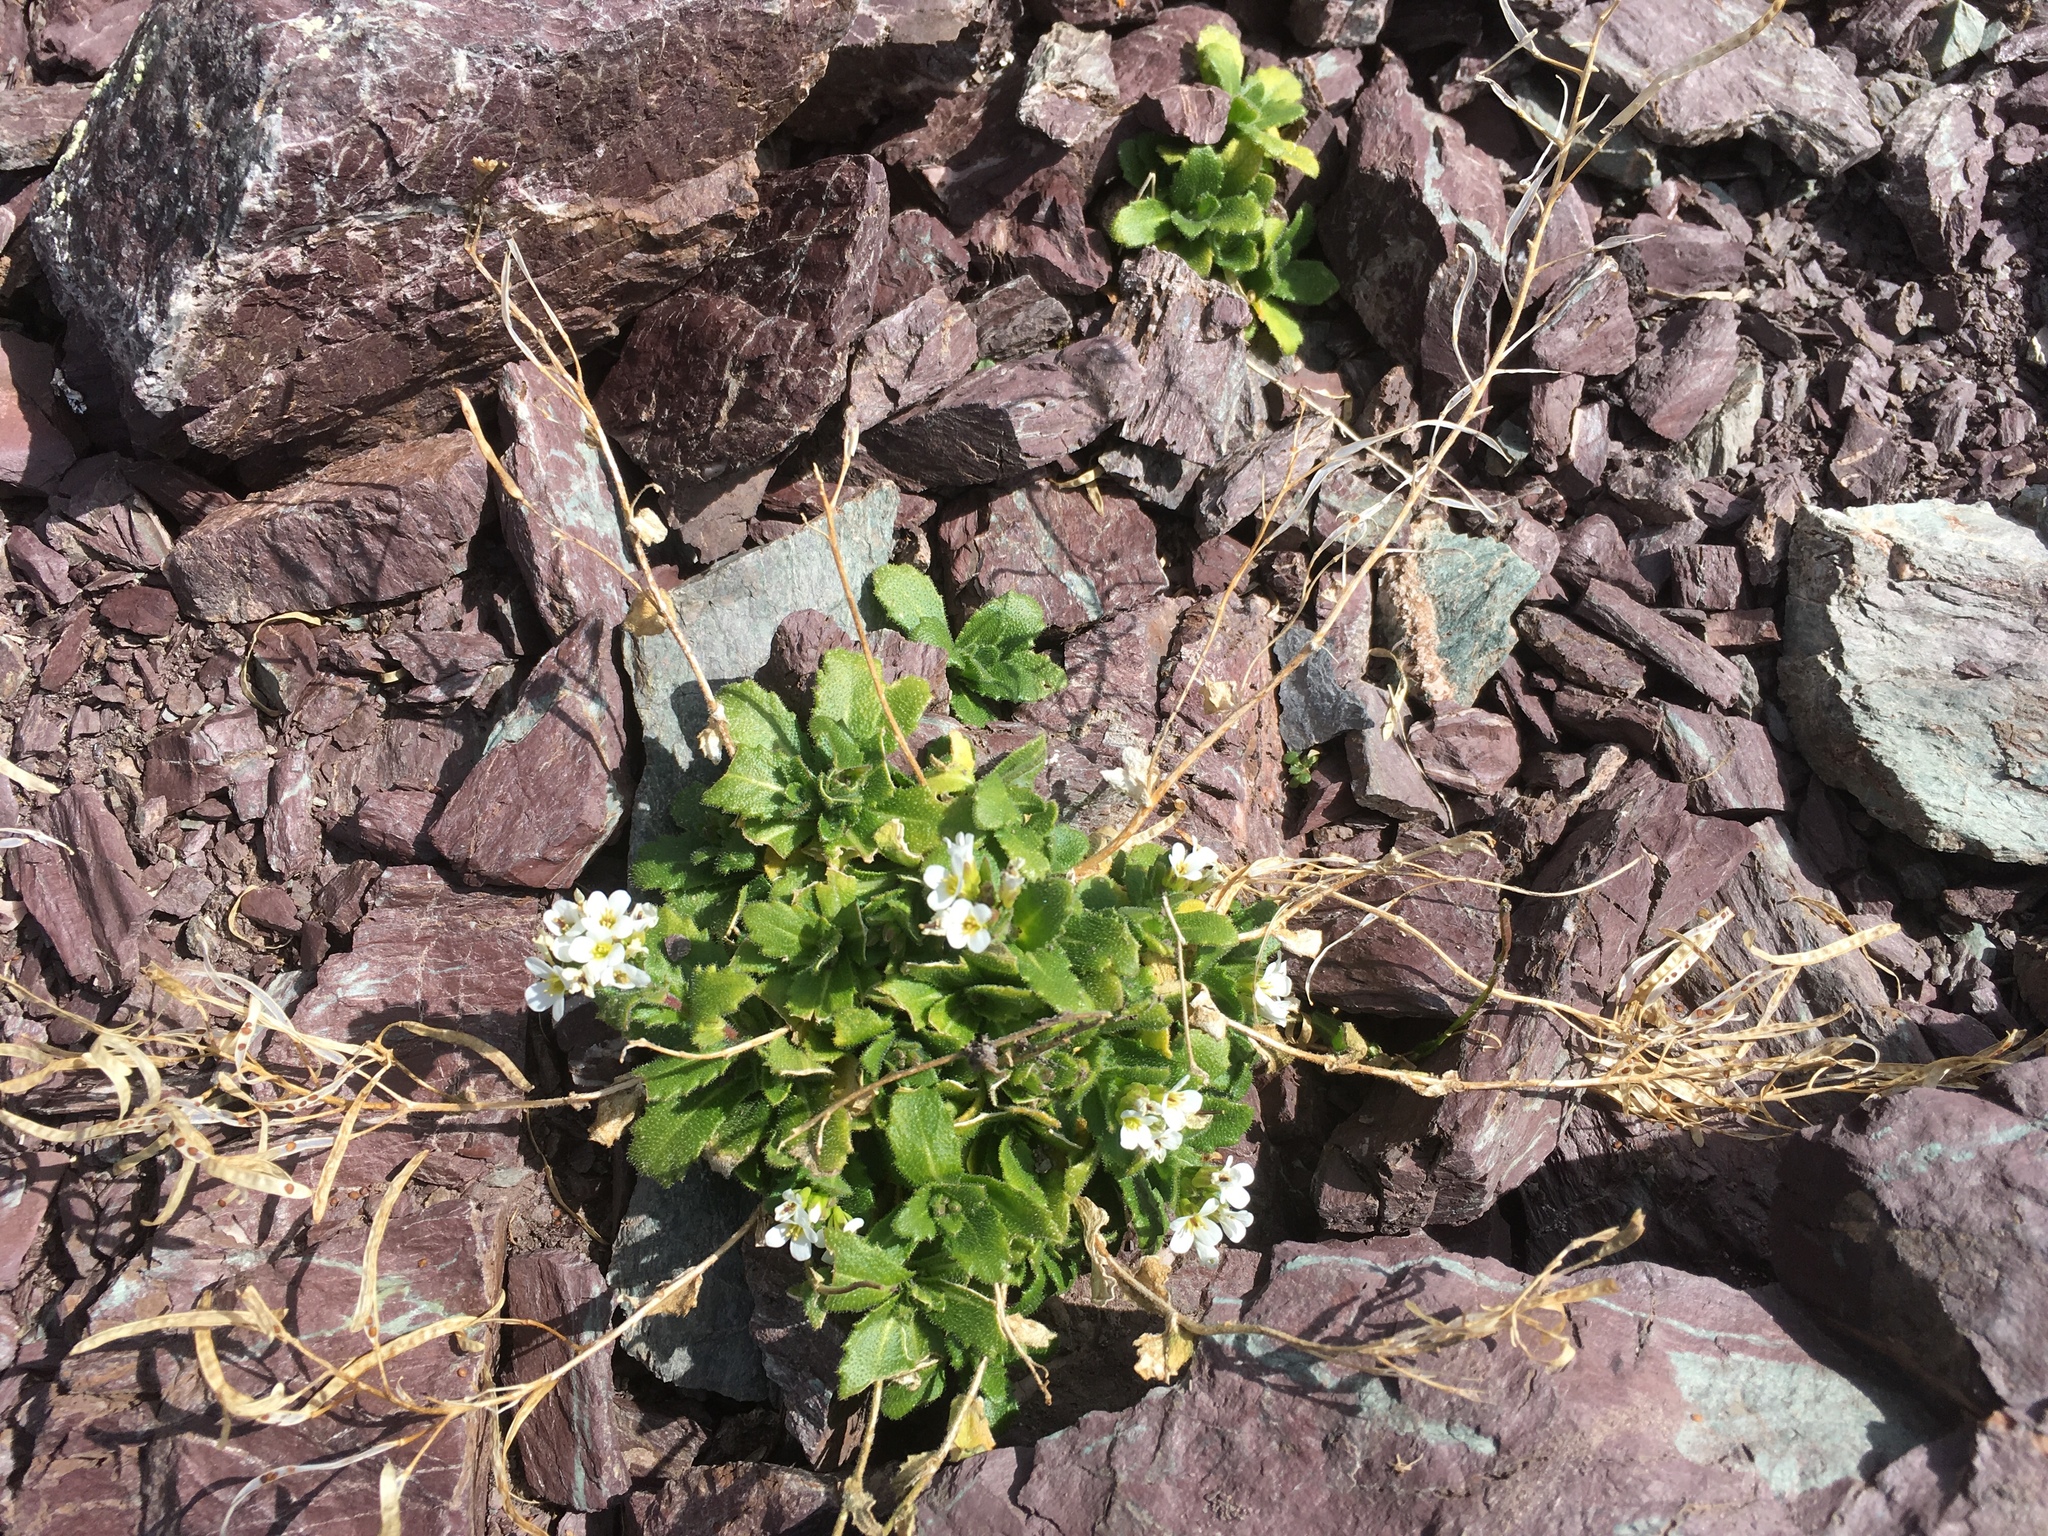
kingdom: Plantae
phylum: Tracheophyta
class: Magnoliopsida
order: Brassicales
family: Brassicaceae
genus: Arabis
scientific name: Arabis alpina
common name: Alpine rock-cress
